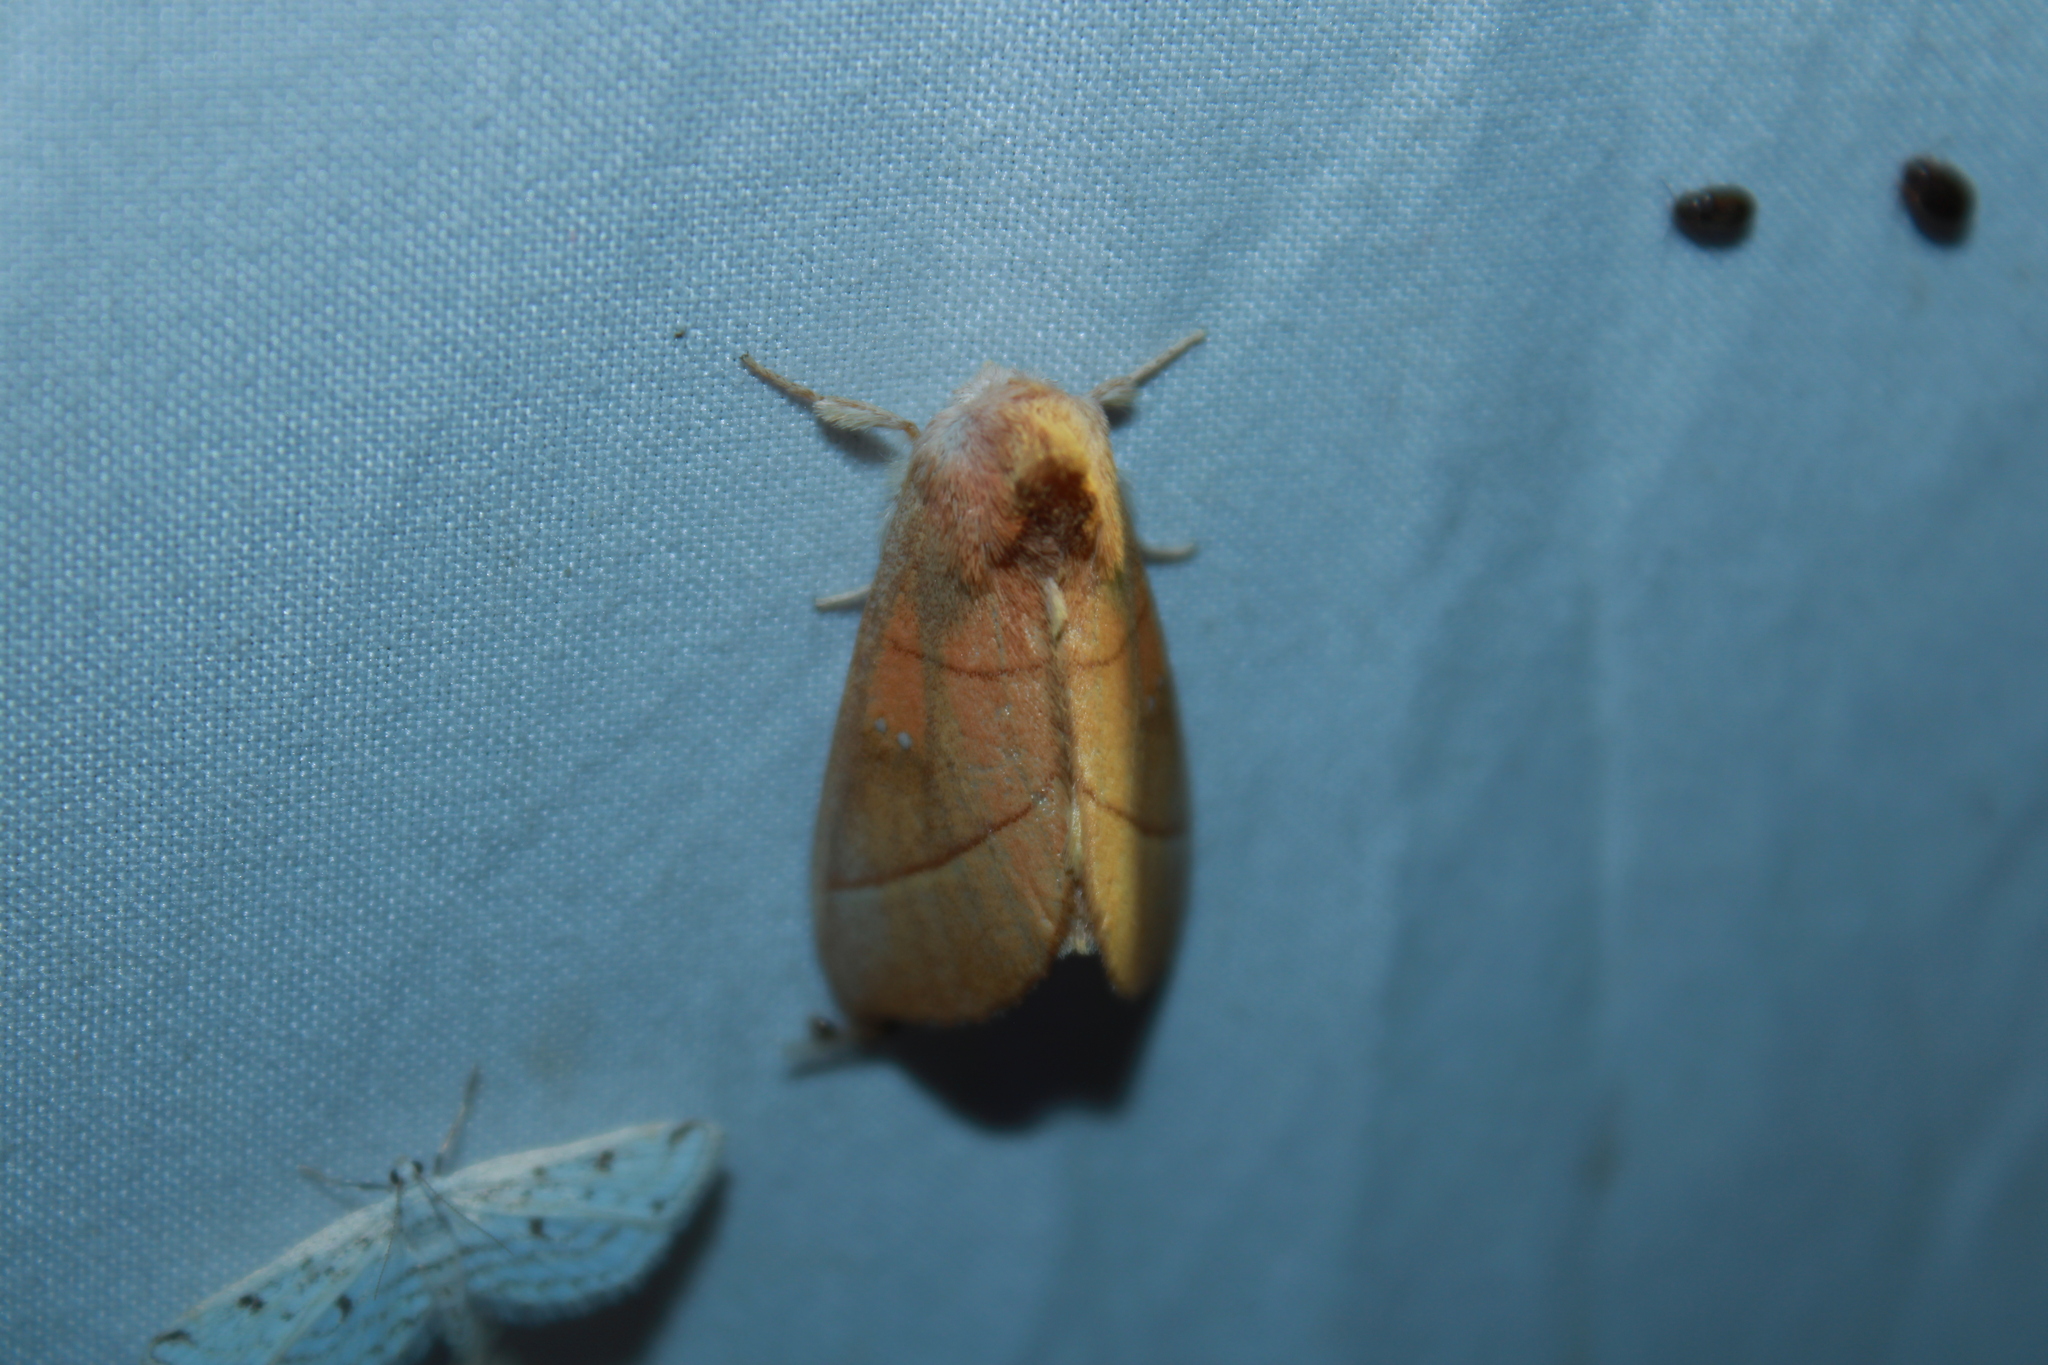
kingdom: Animalia
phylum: Arthropoda
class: Insecta
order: Lepidoptera
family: Notodontidae
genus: Nadata
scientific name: Nadata gibbosa
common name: White-dotted prominent
